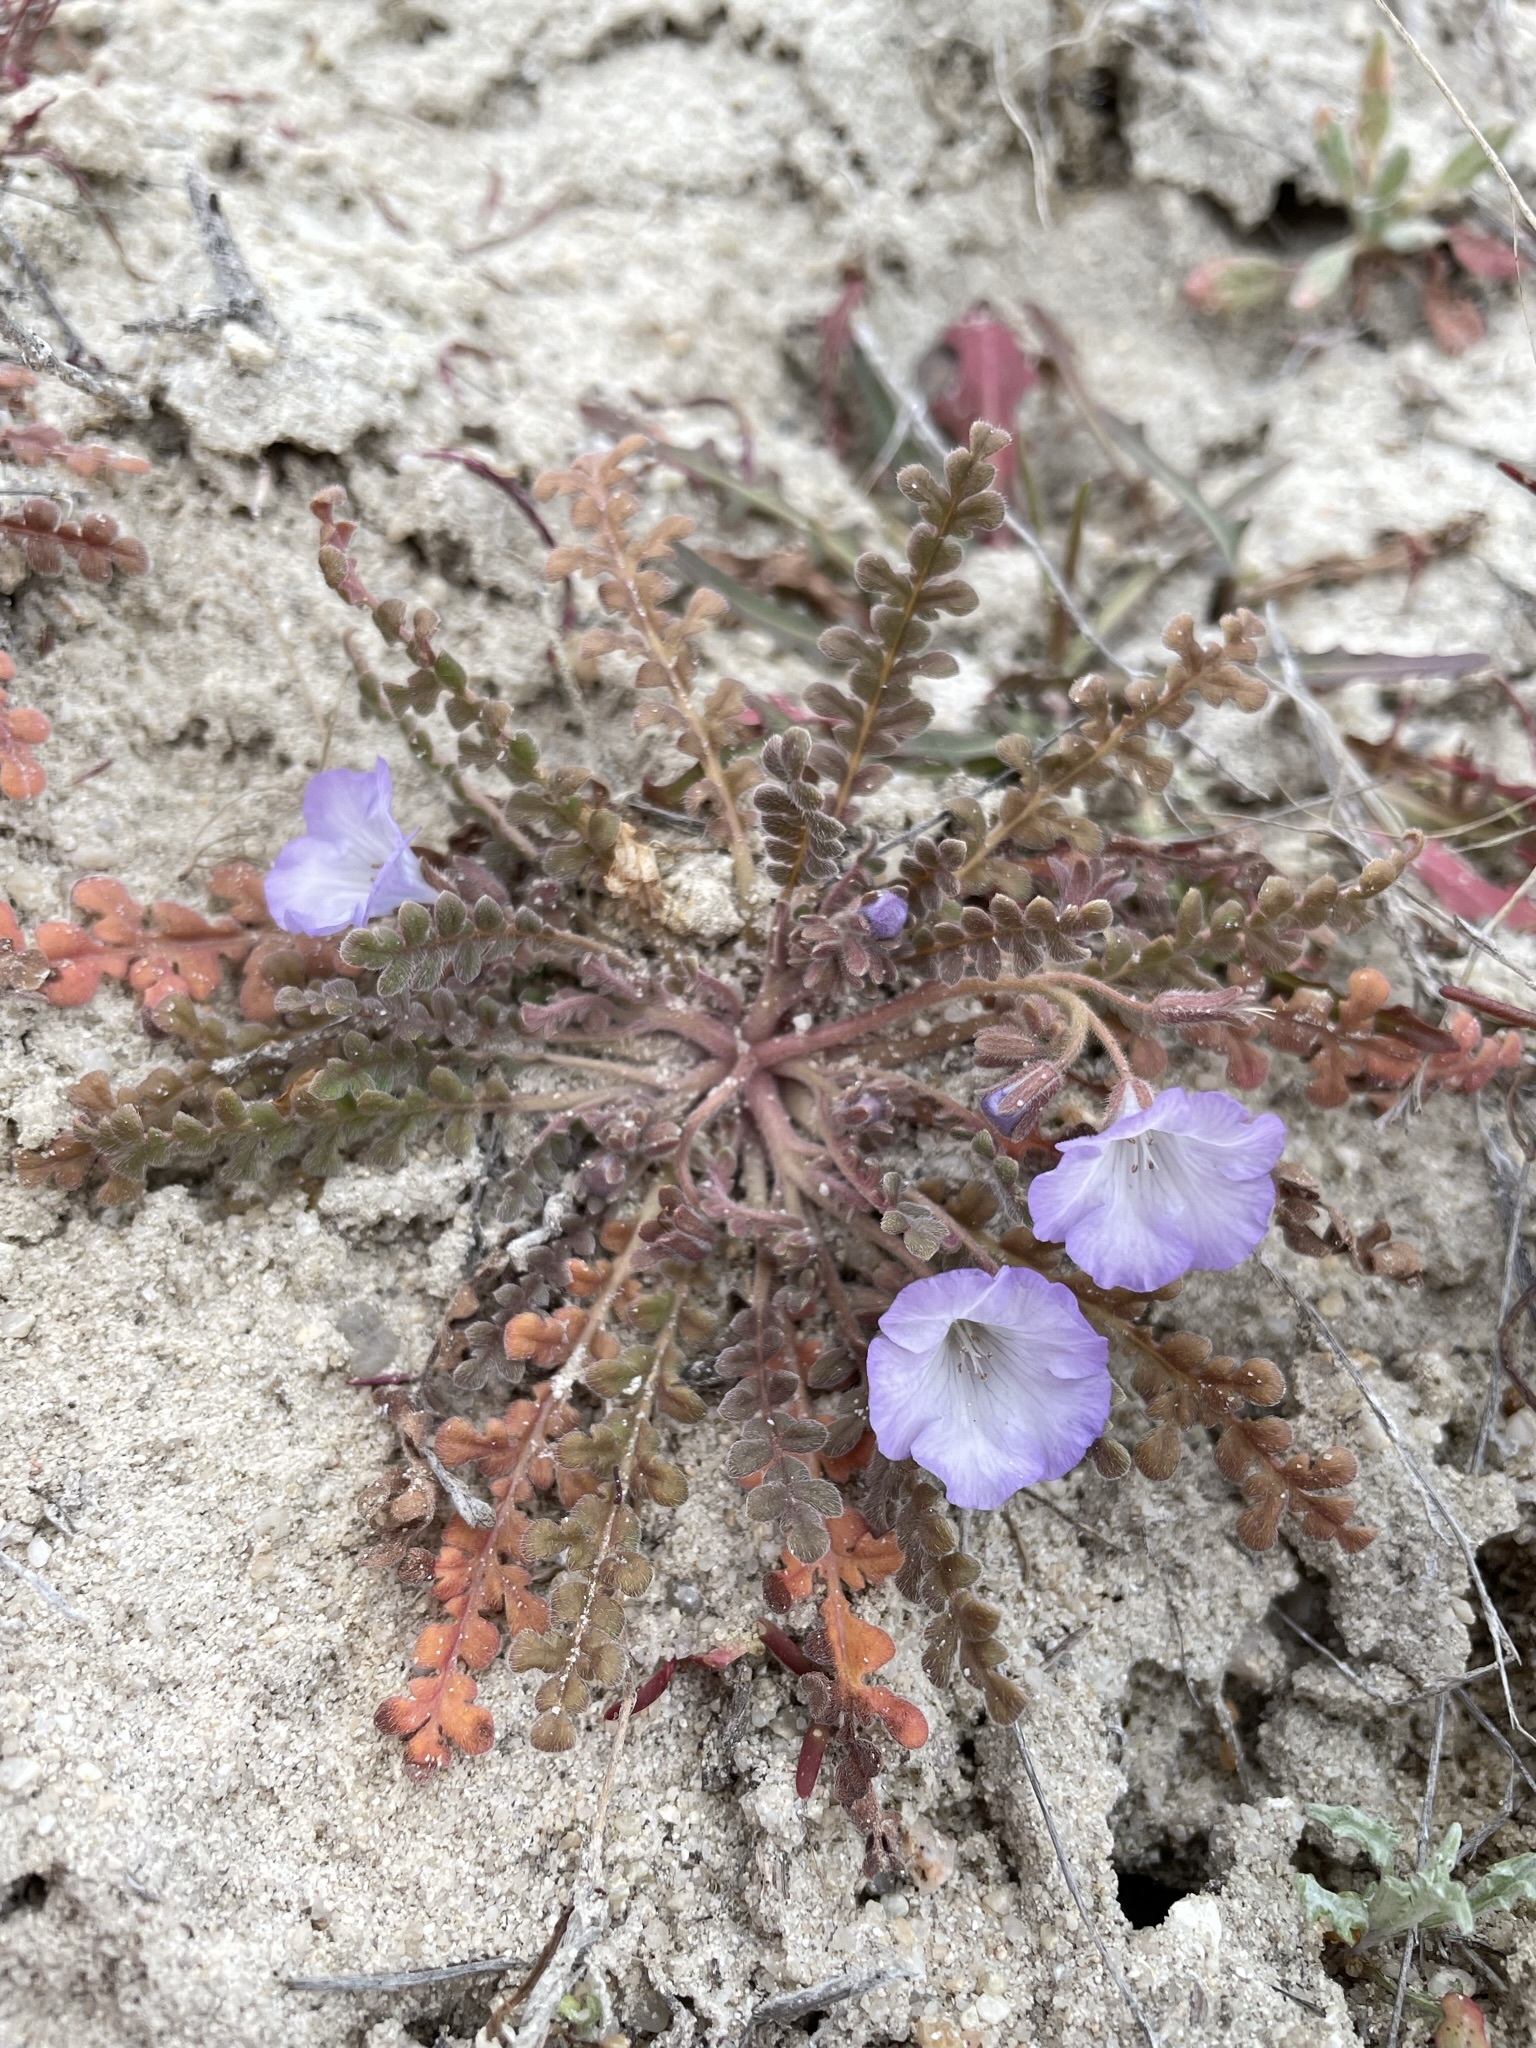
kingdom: Plantae
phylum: Tracheophyta
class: Magnoliopsida
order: Boraginales
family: Hydrophyllaceae
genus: Phacelia
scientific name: Phacelia douglasii
